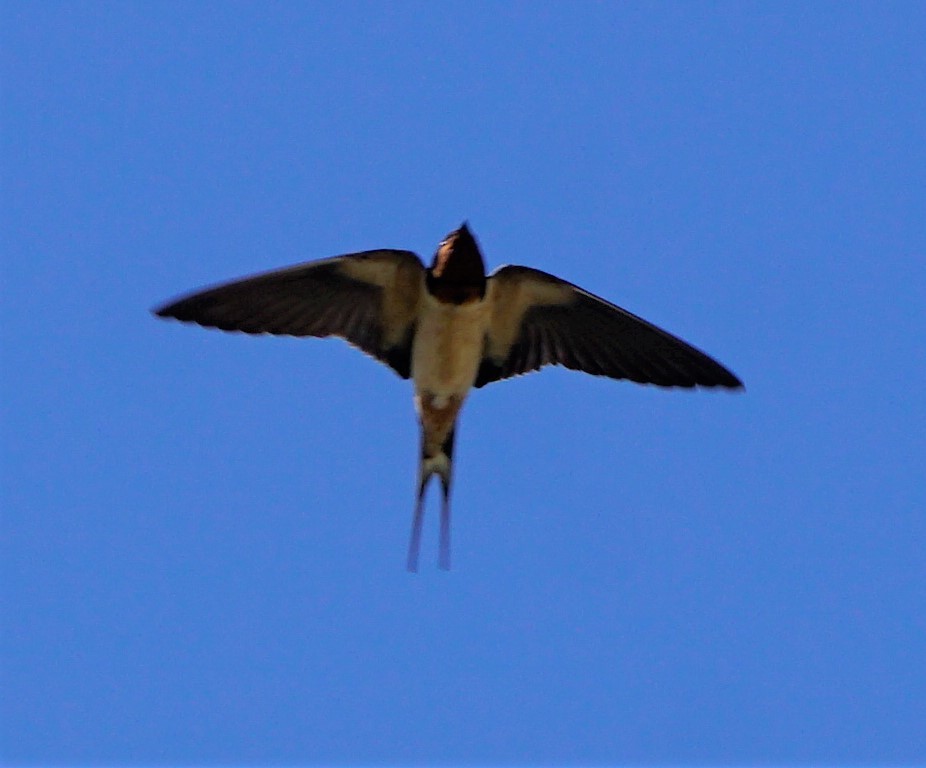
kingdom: Animalia
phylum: Chordata
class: Aves
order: Passeriformes
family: Hirundinidae
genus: Hirundo
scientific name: Hirundo rustica
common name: Barn swallow
